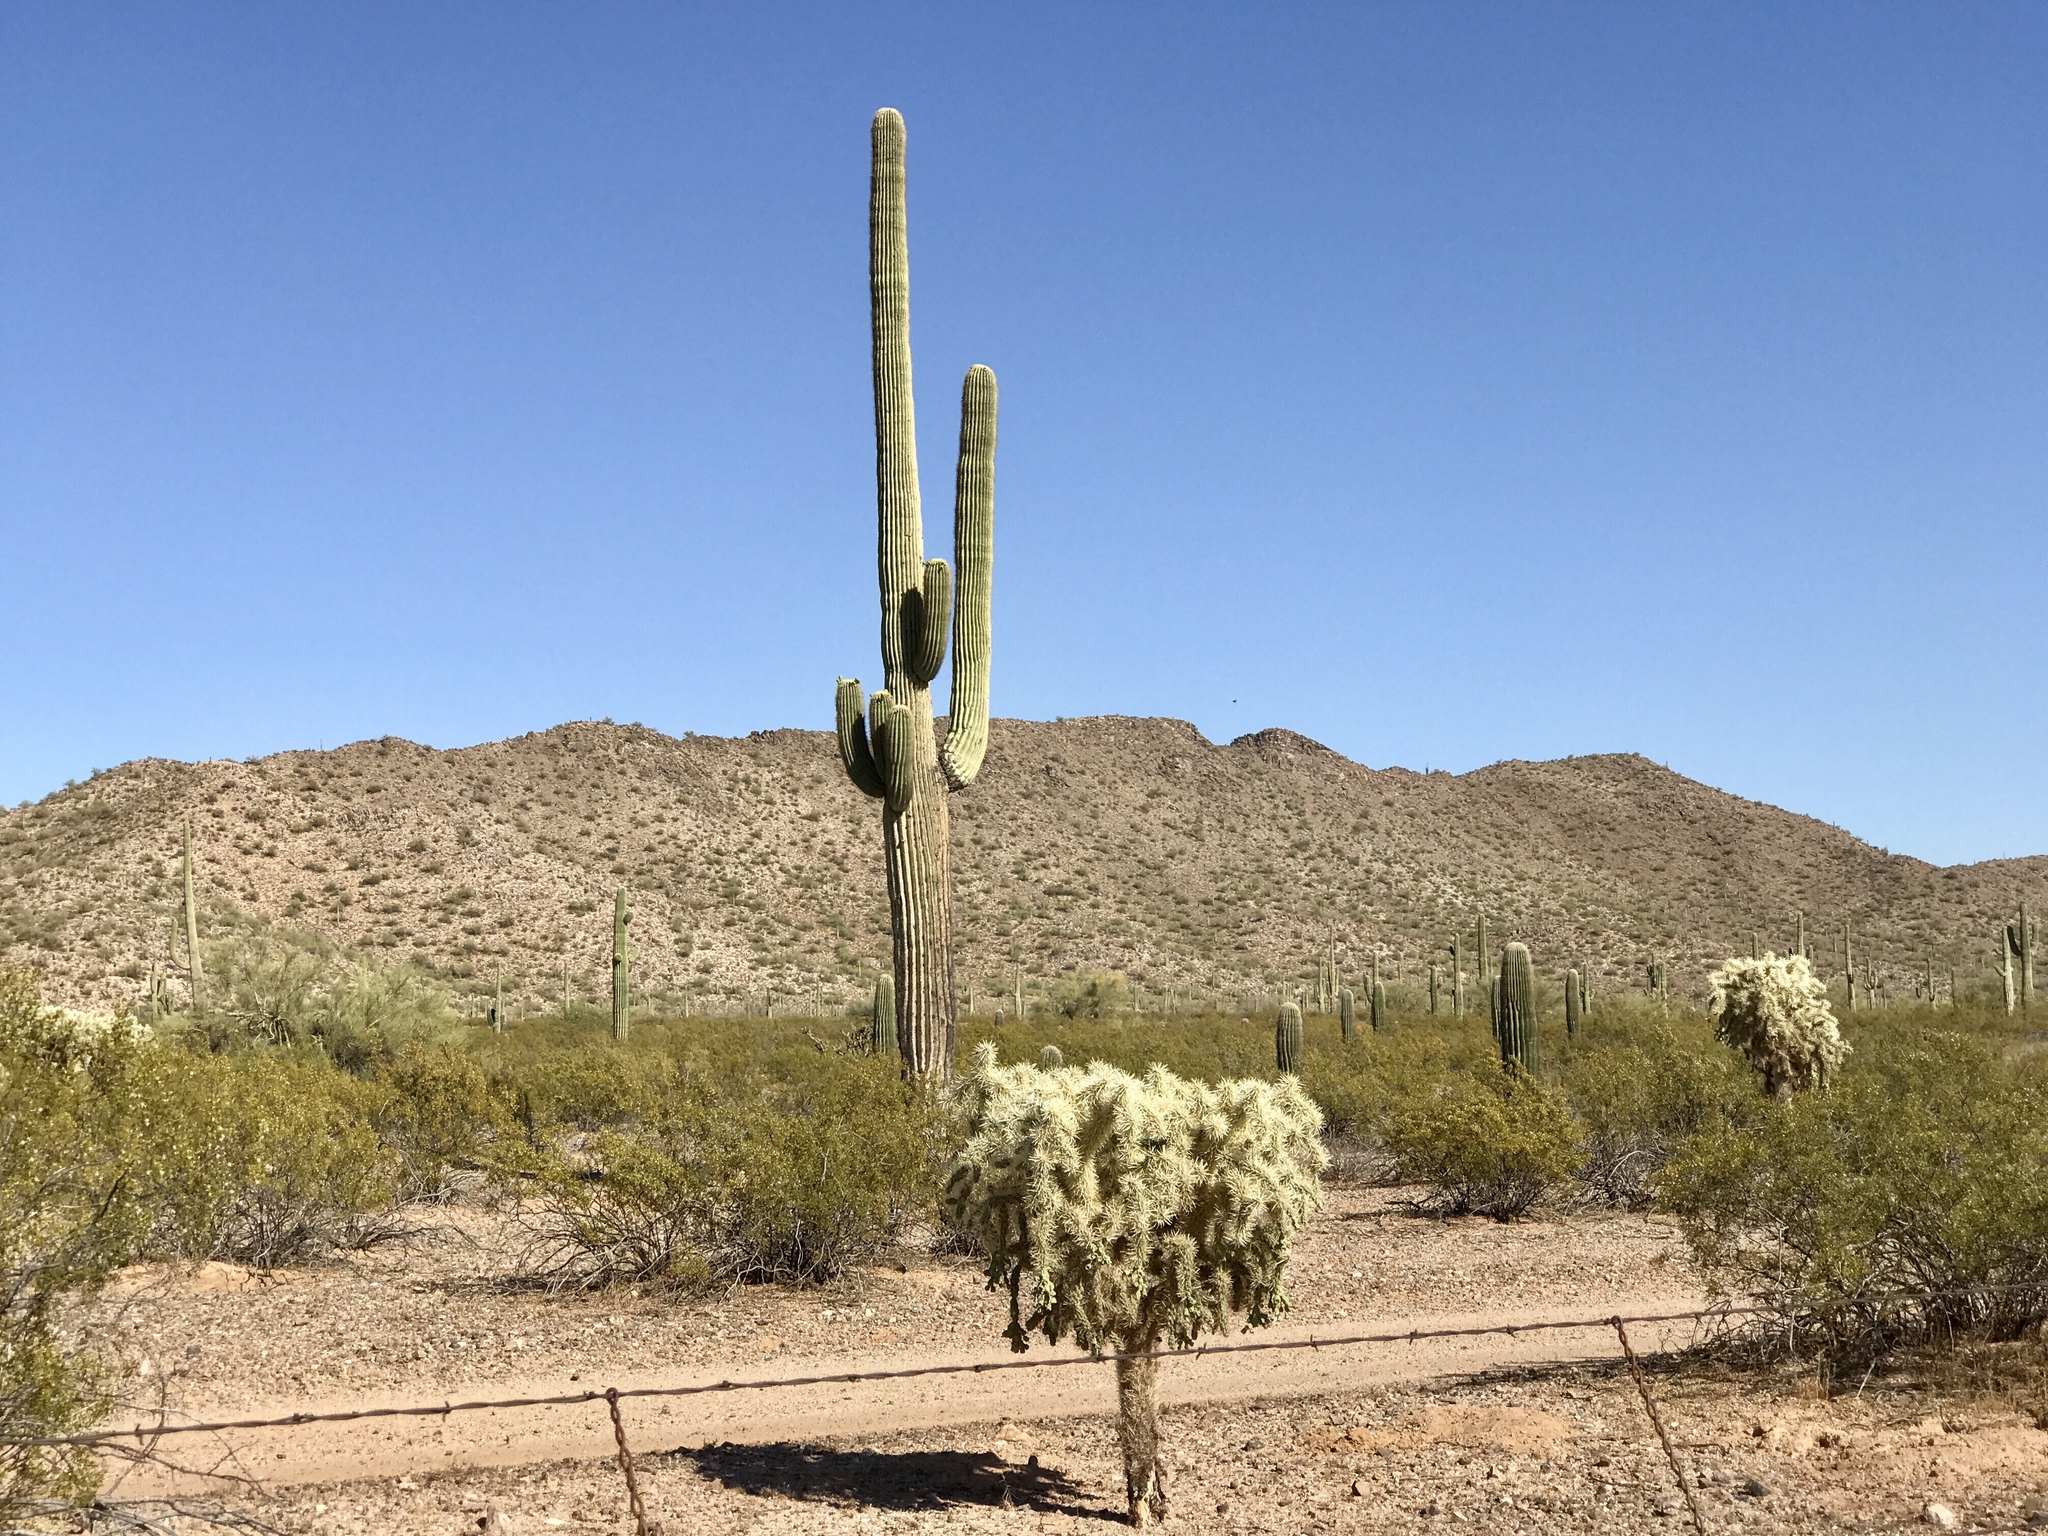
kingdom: Plantae
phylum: Tracheophyta
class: Magnoliopsida
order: Caryophyllales
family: Cactaceae
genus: Carnegiea
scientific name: Carnegiea gigantea
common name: Saguaro
